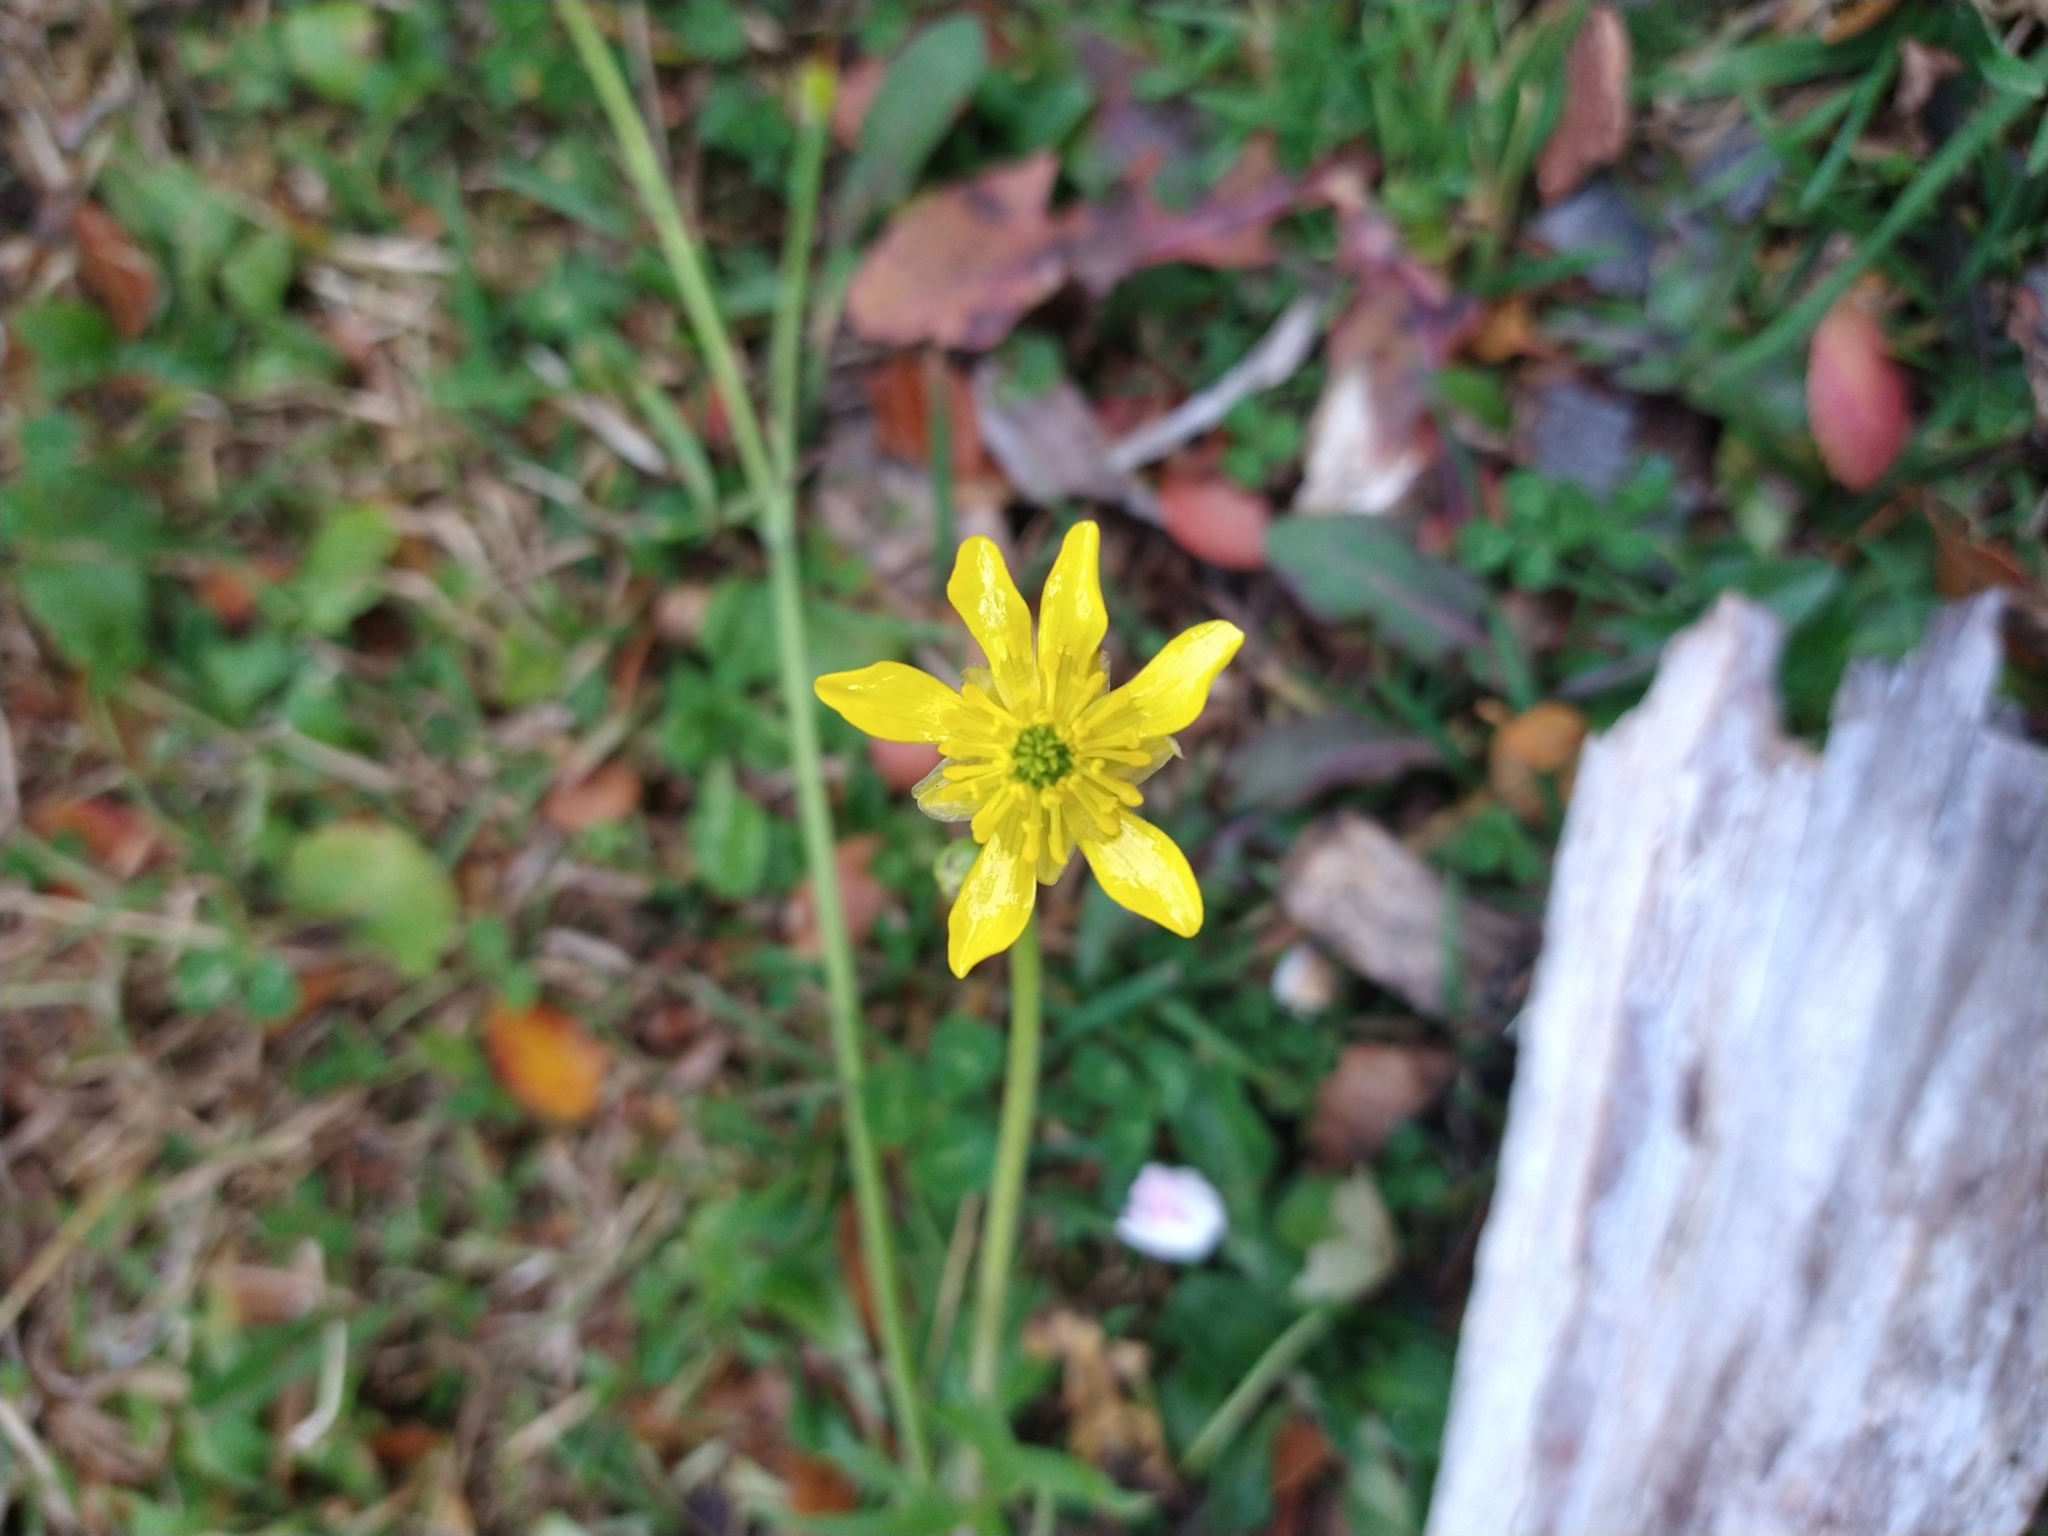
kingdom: Plantae
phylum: Tracheophyta
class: Magnoliopsida
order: Ranunculales
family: Ranunculaceae
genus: Ranunculus
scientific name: Ranunculus peduncularis
